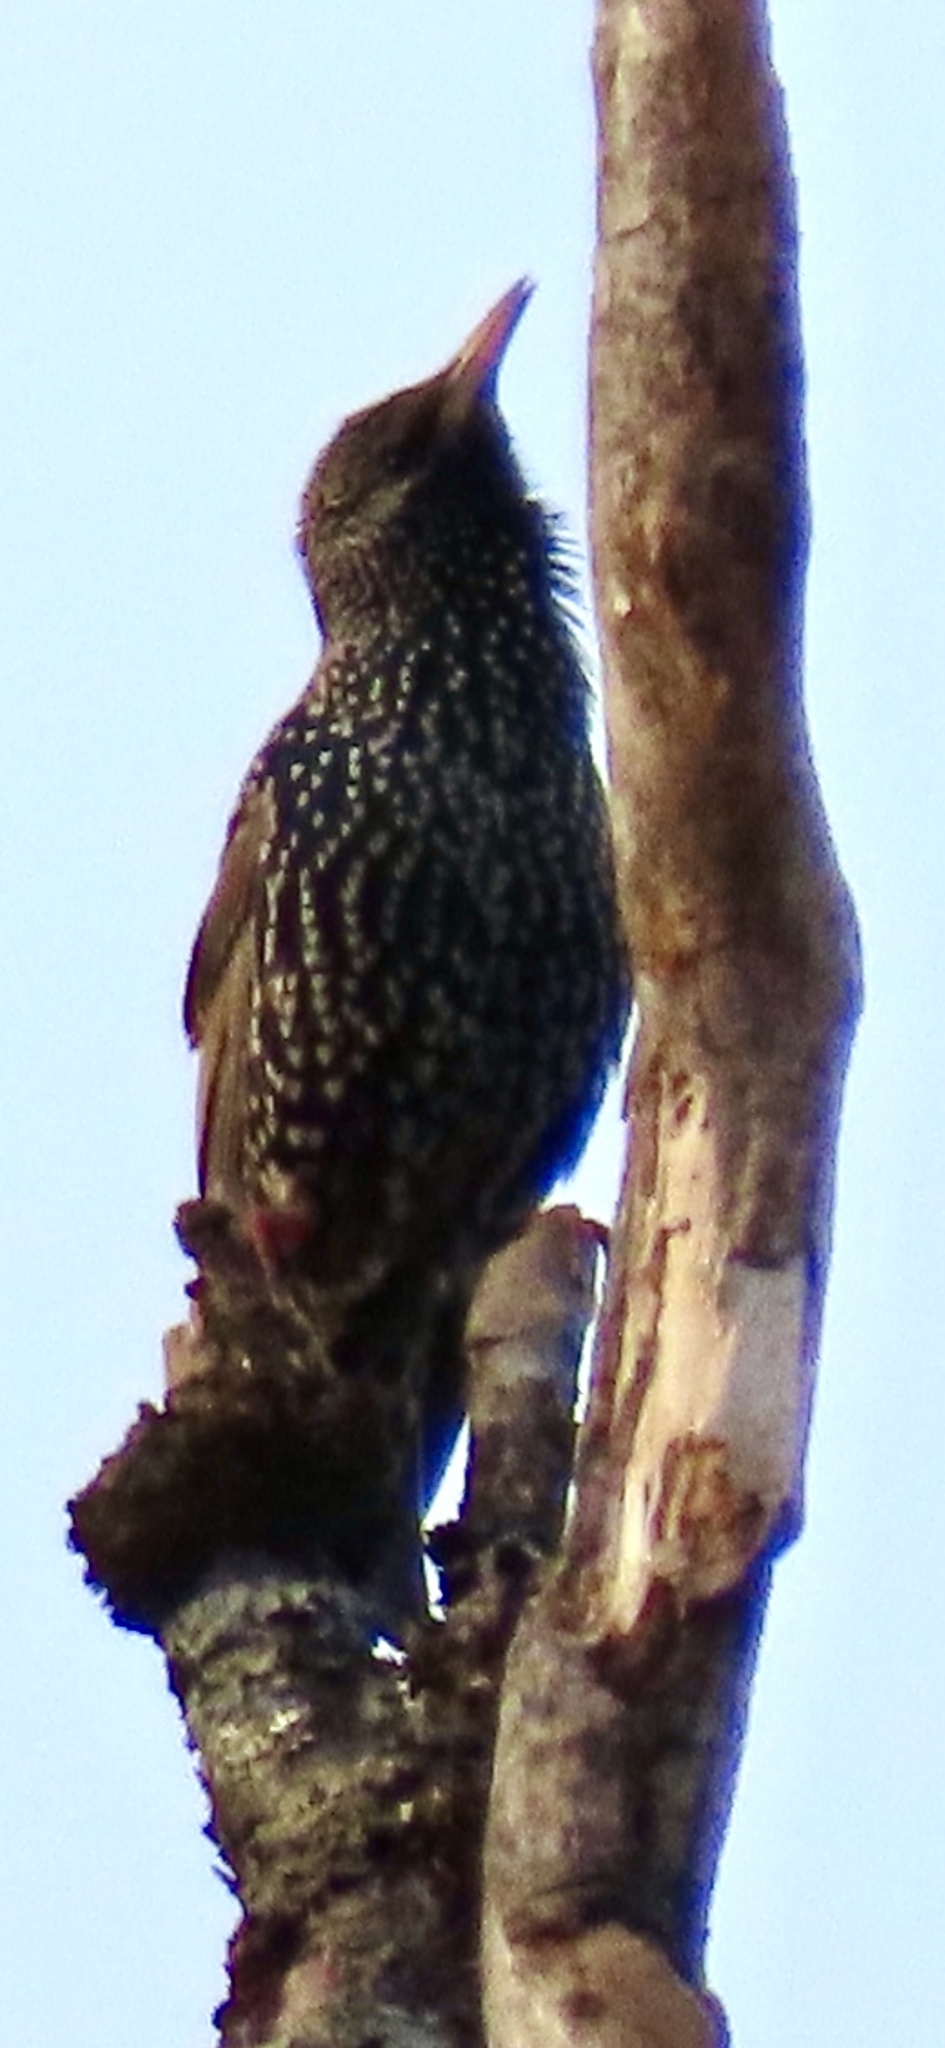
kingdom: Animalia
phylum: Chordata
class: Aves
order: Passeriformes
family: Sturnidae
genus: Sturnus
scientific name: Sturnus vulgaris
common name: Common starling
